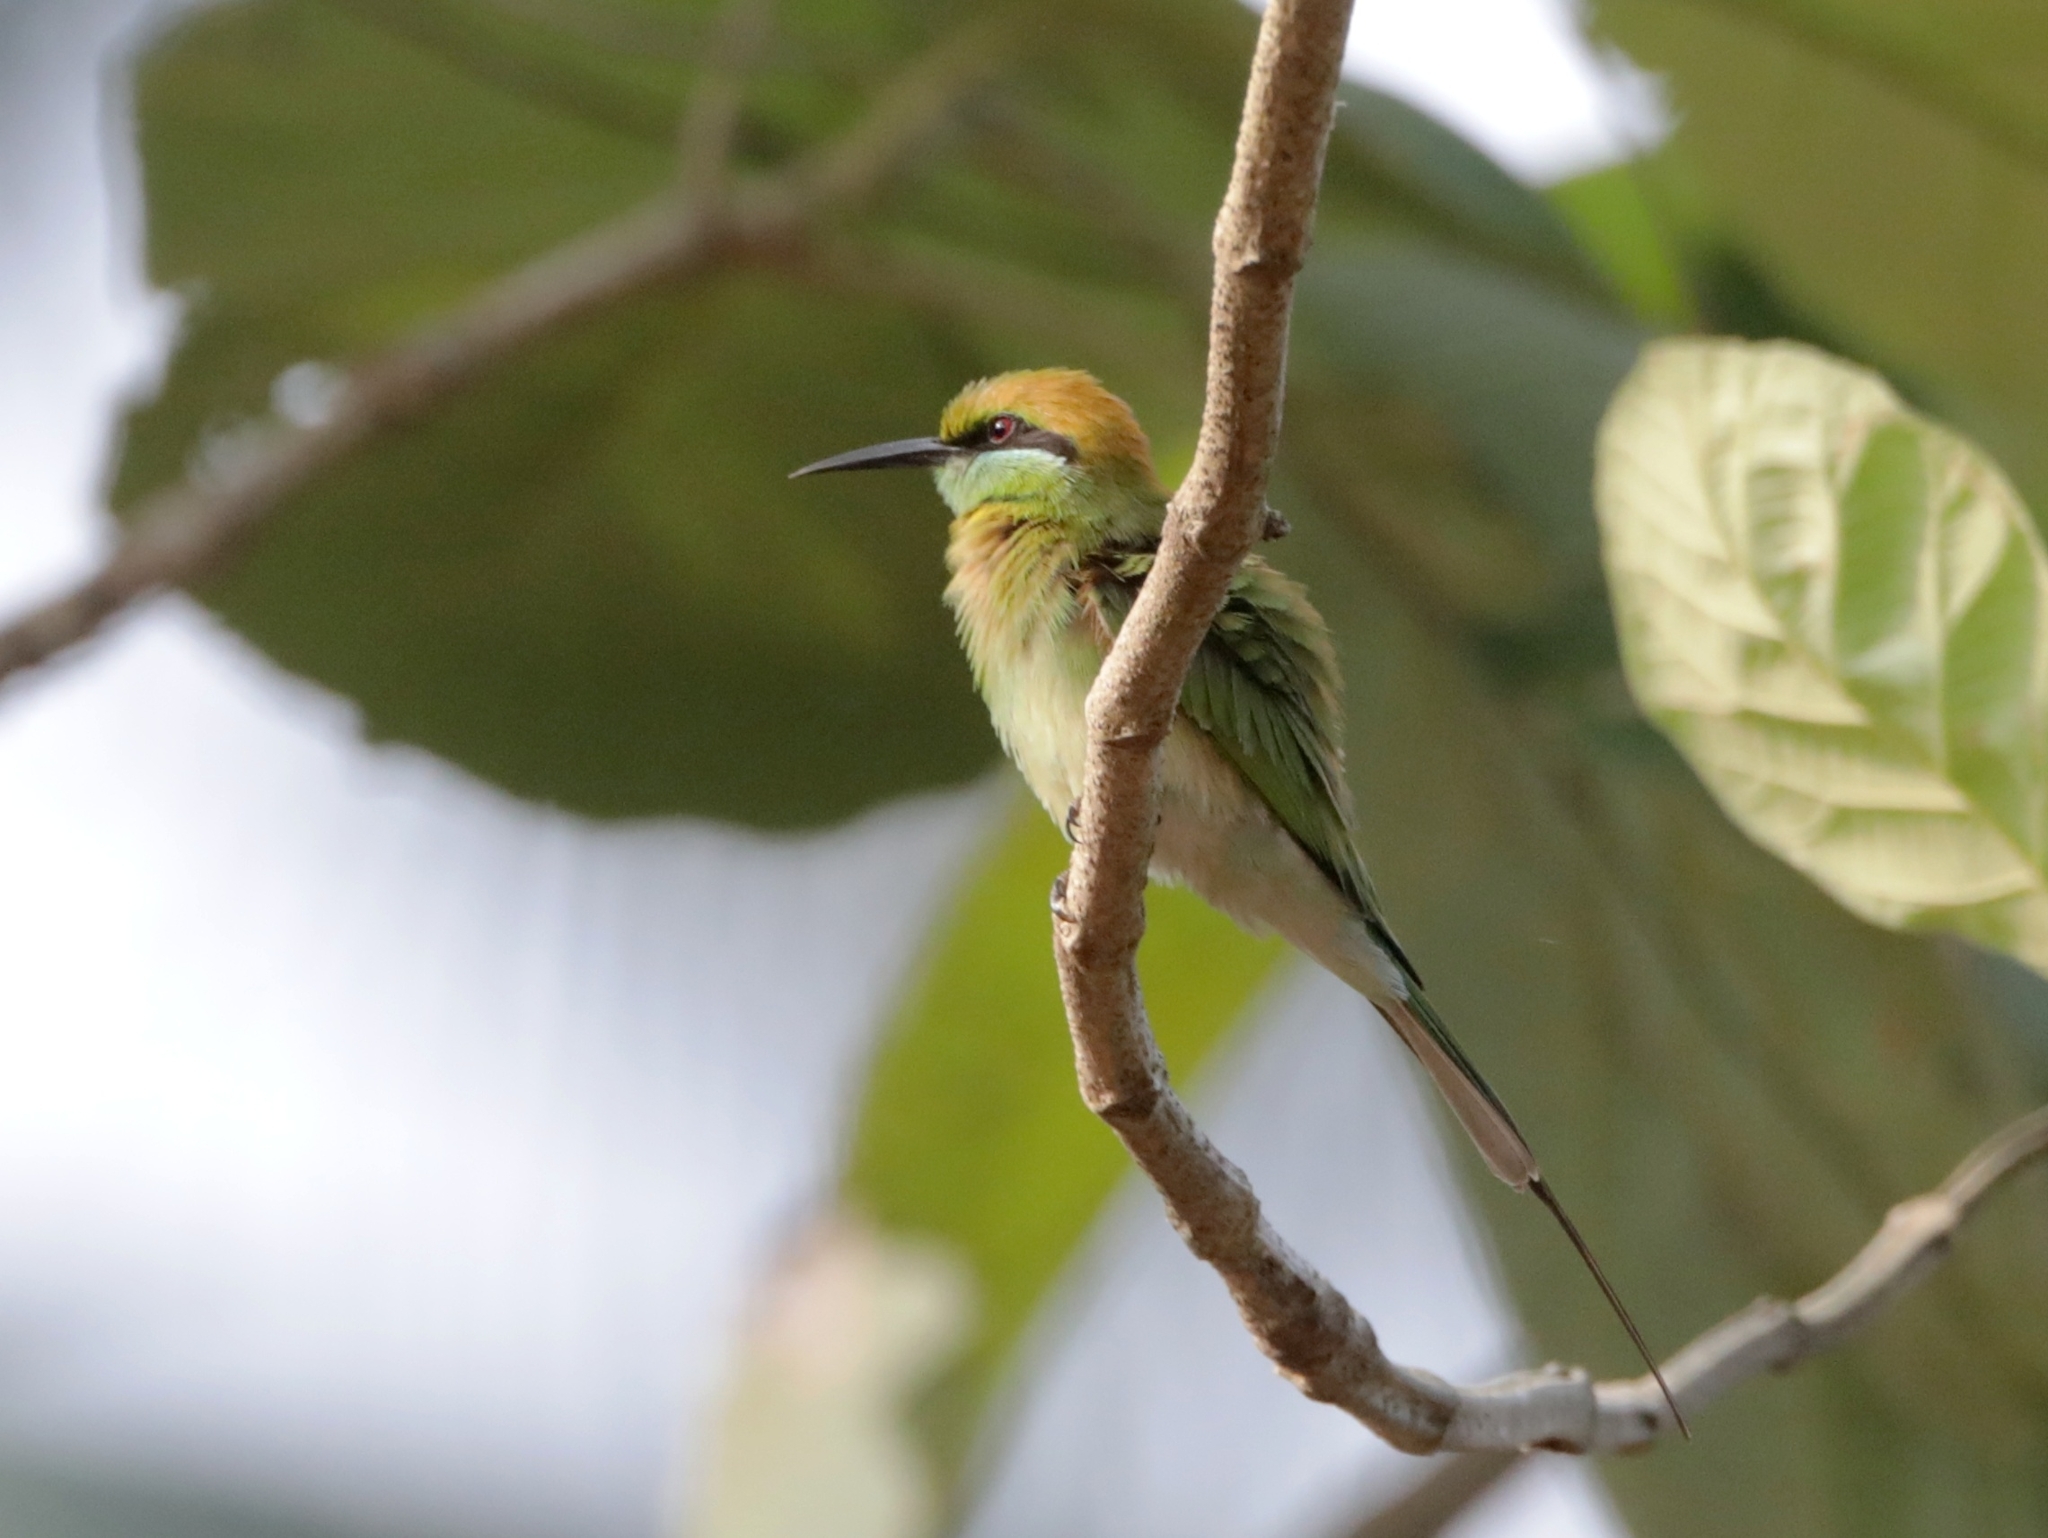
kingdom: Animalia
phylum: Chordata
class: Aves
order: Coraciiformes
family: Meropidae
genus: Merops
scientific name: Merops orientalis
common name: Green bee-eater
